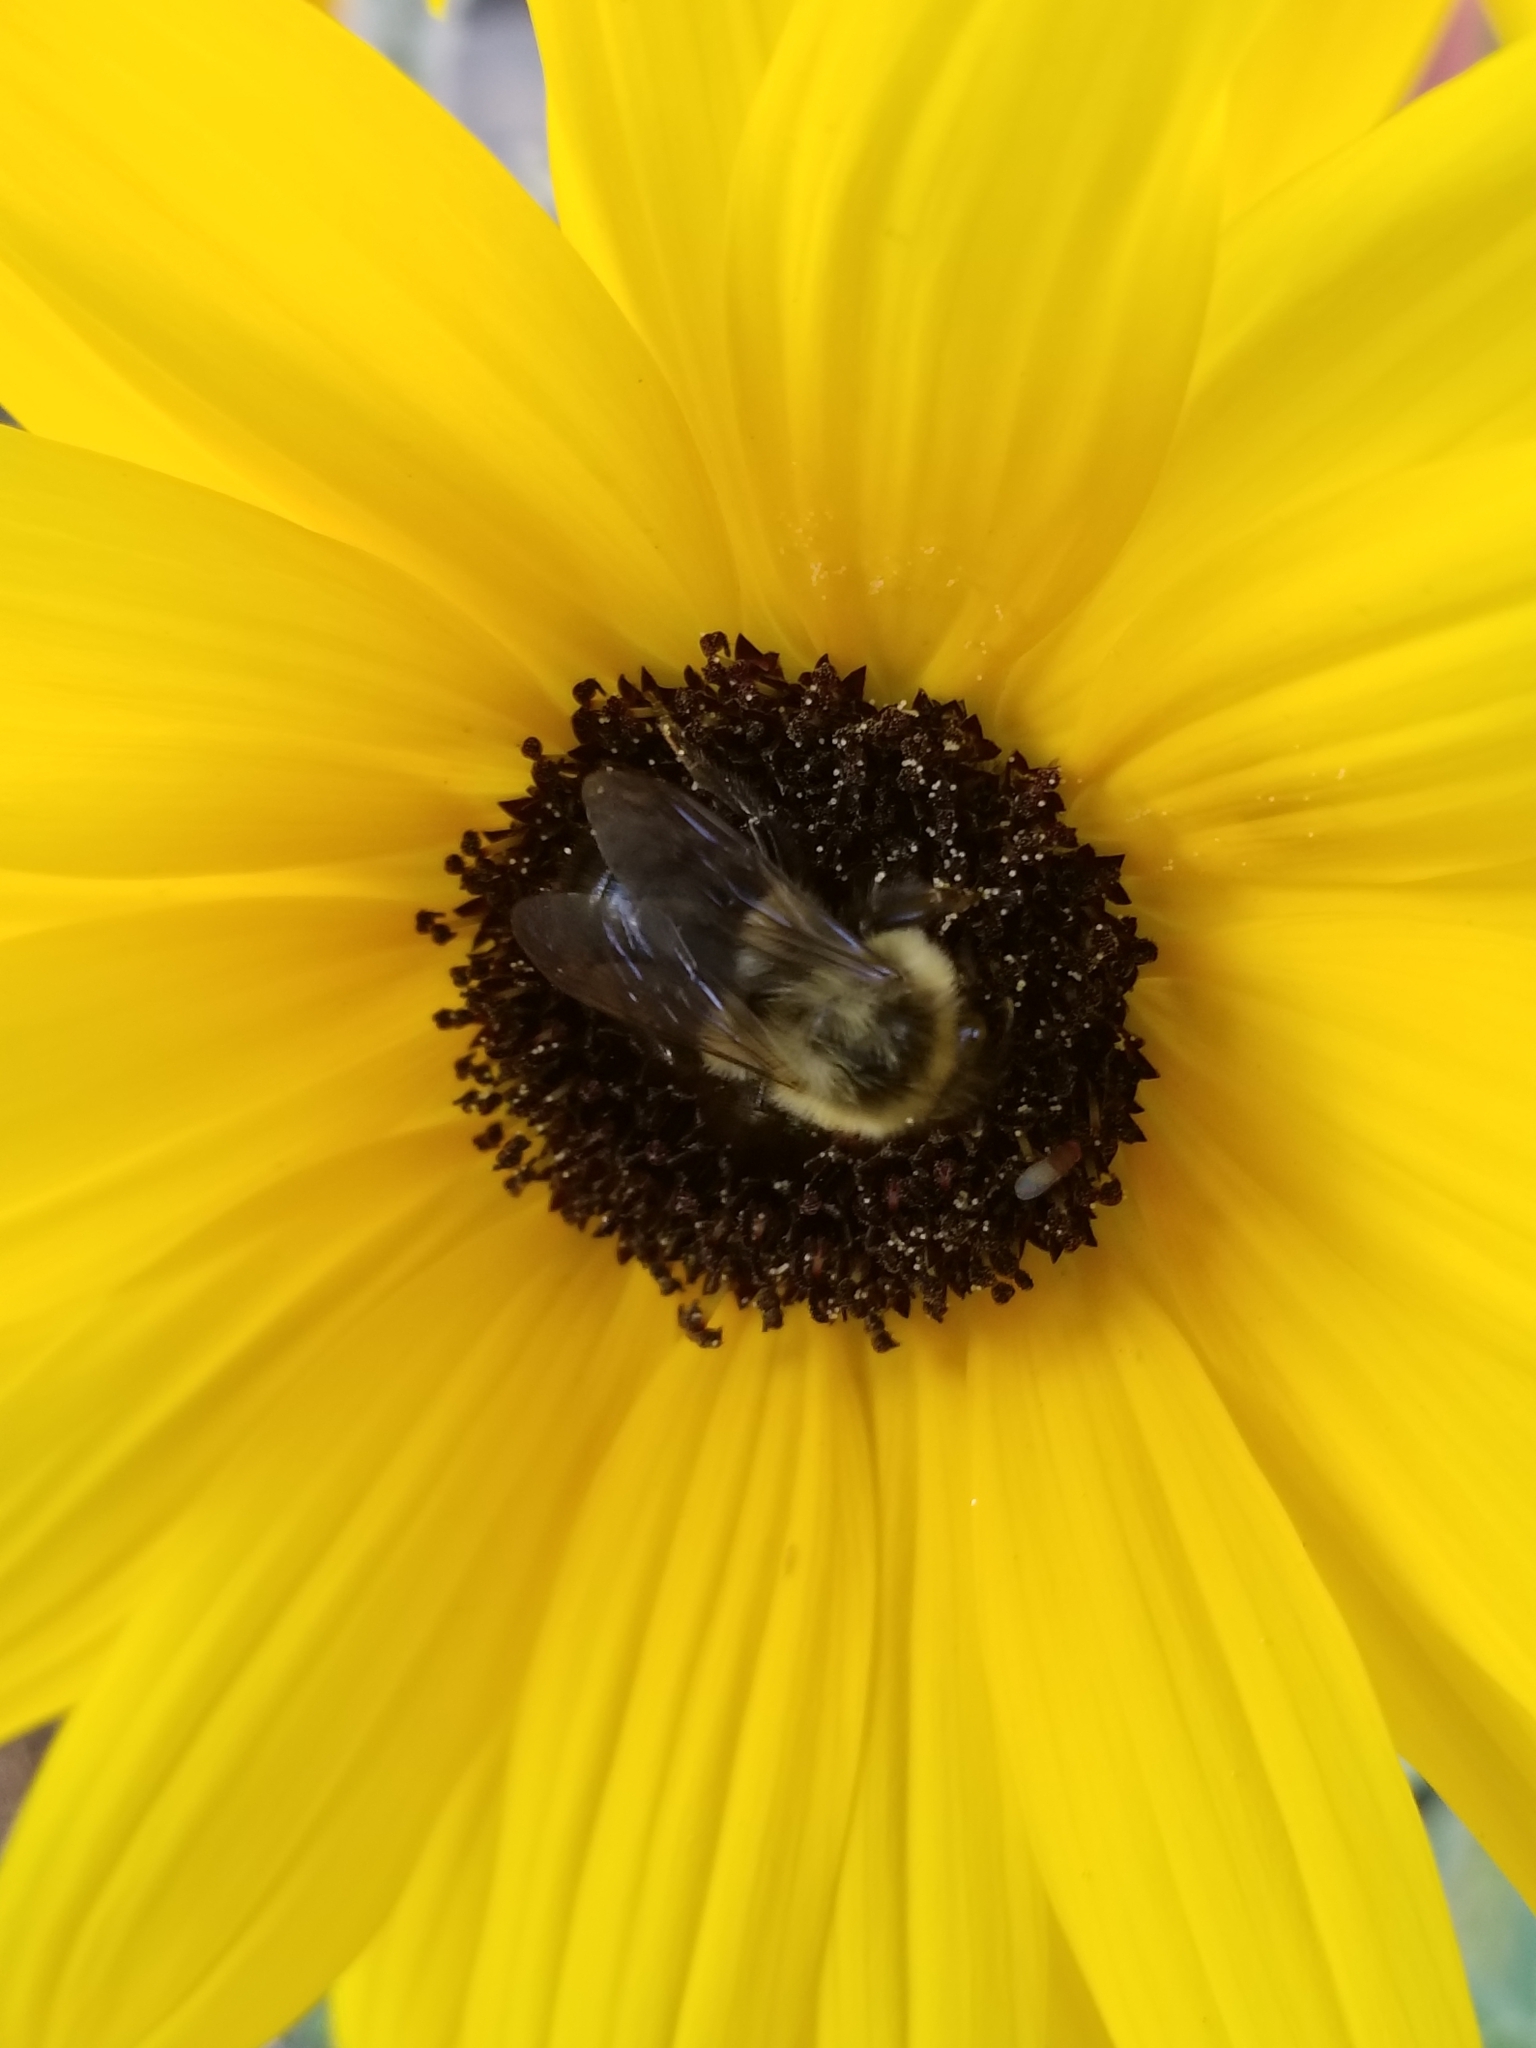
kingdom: Animalia
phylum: Arthropoda
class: Insecta
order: Hymenoptera
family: Apidae
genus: Bombus
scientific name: Bombus impatiens
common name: Common eastern bumble bee
